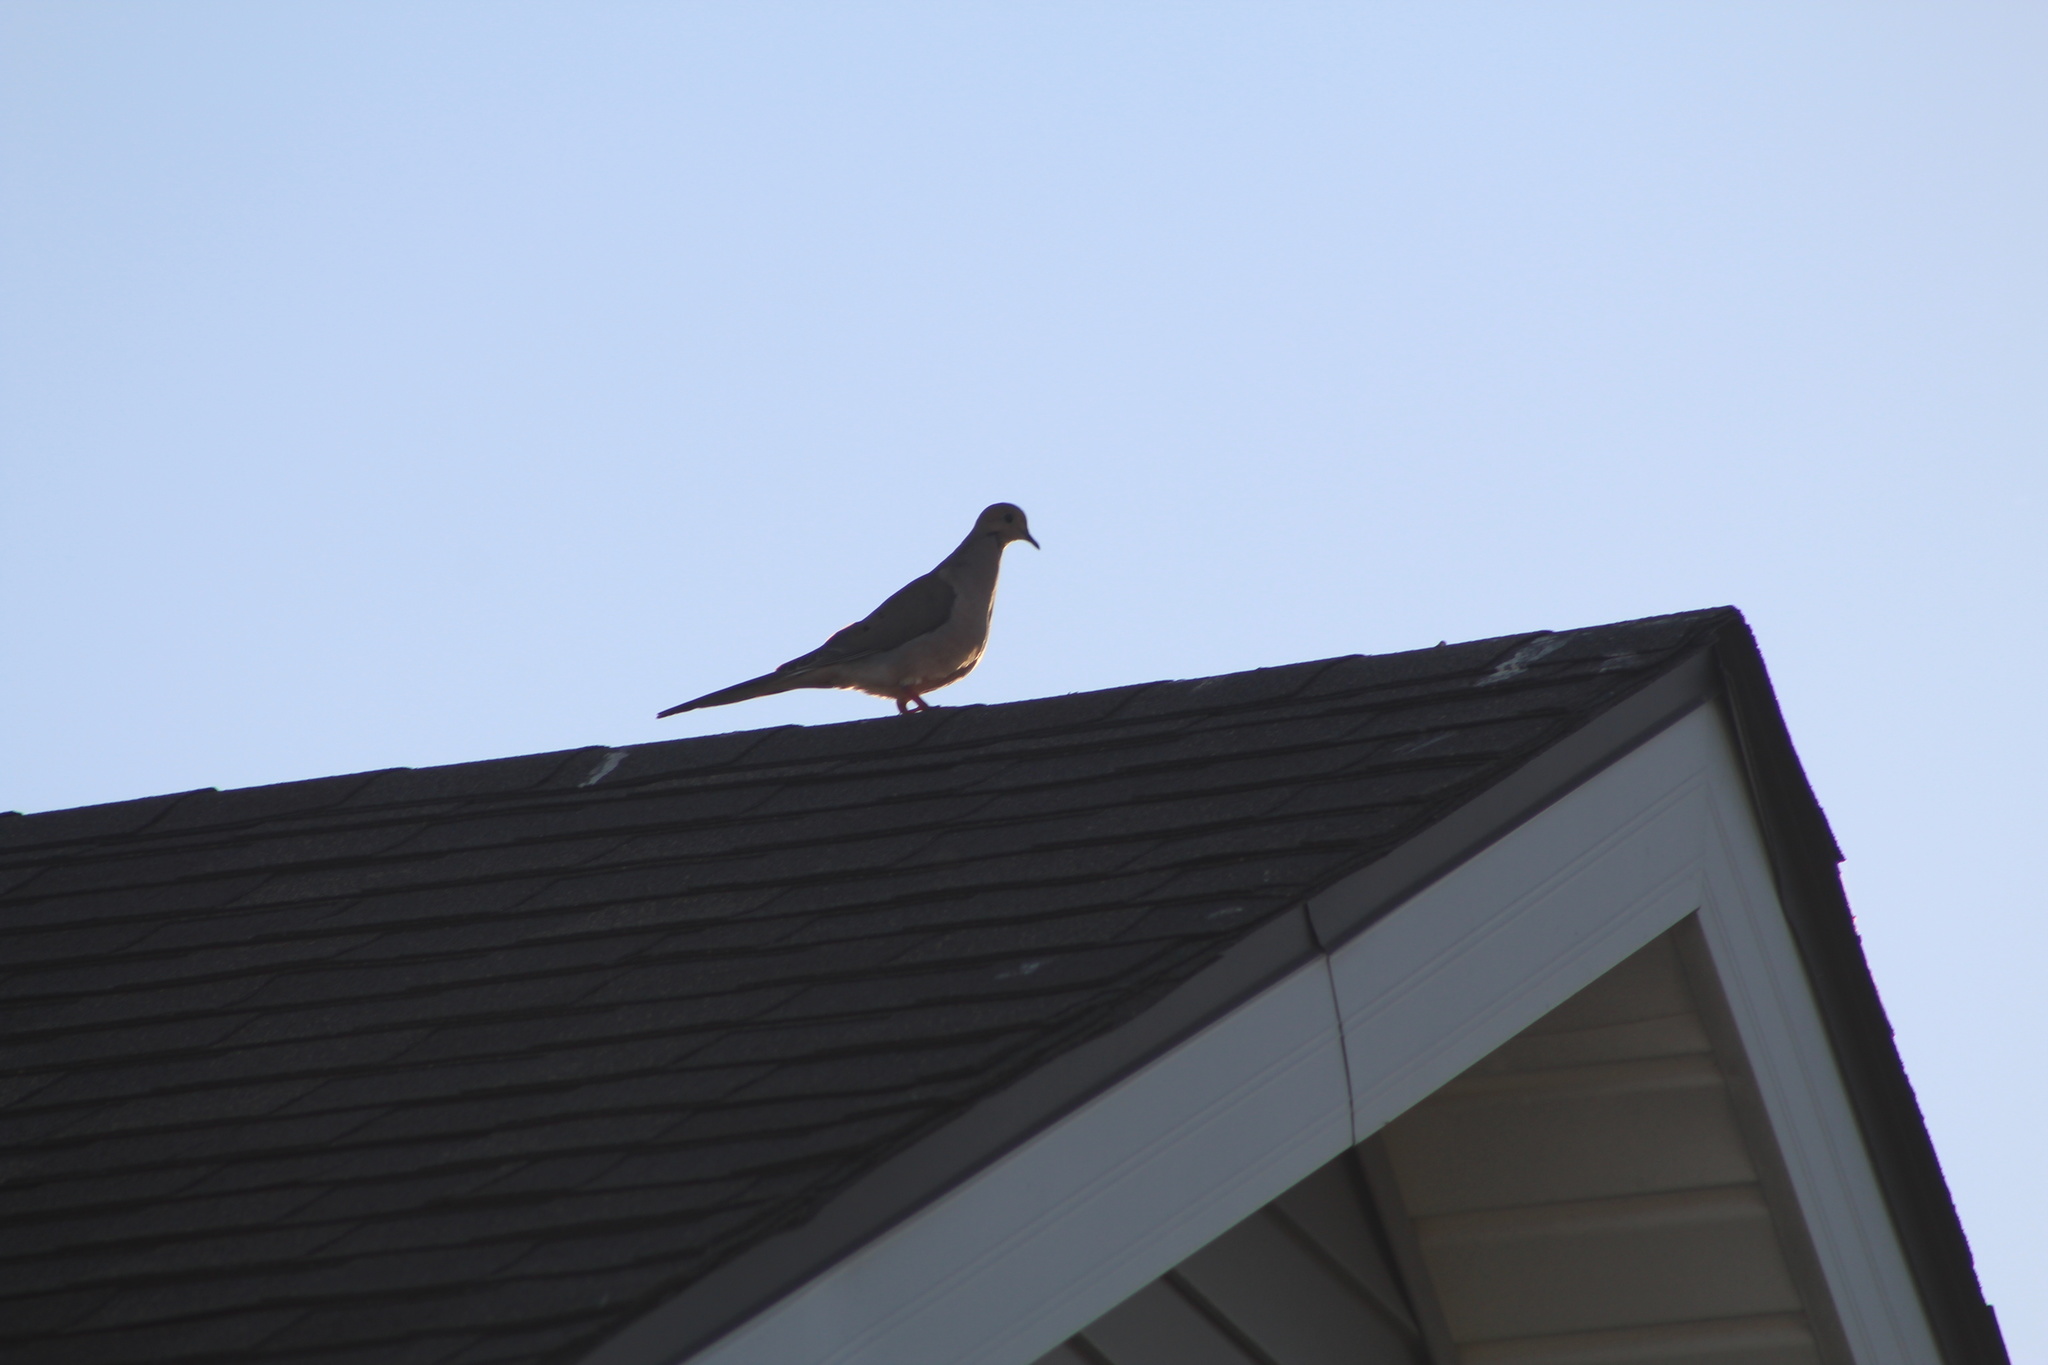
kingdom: Animalia
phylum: Chordata
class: Aves
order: Columbiformes
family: Columbidae
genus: Zenaida
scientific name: Zenaida macroura
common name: Mourning dove
